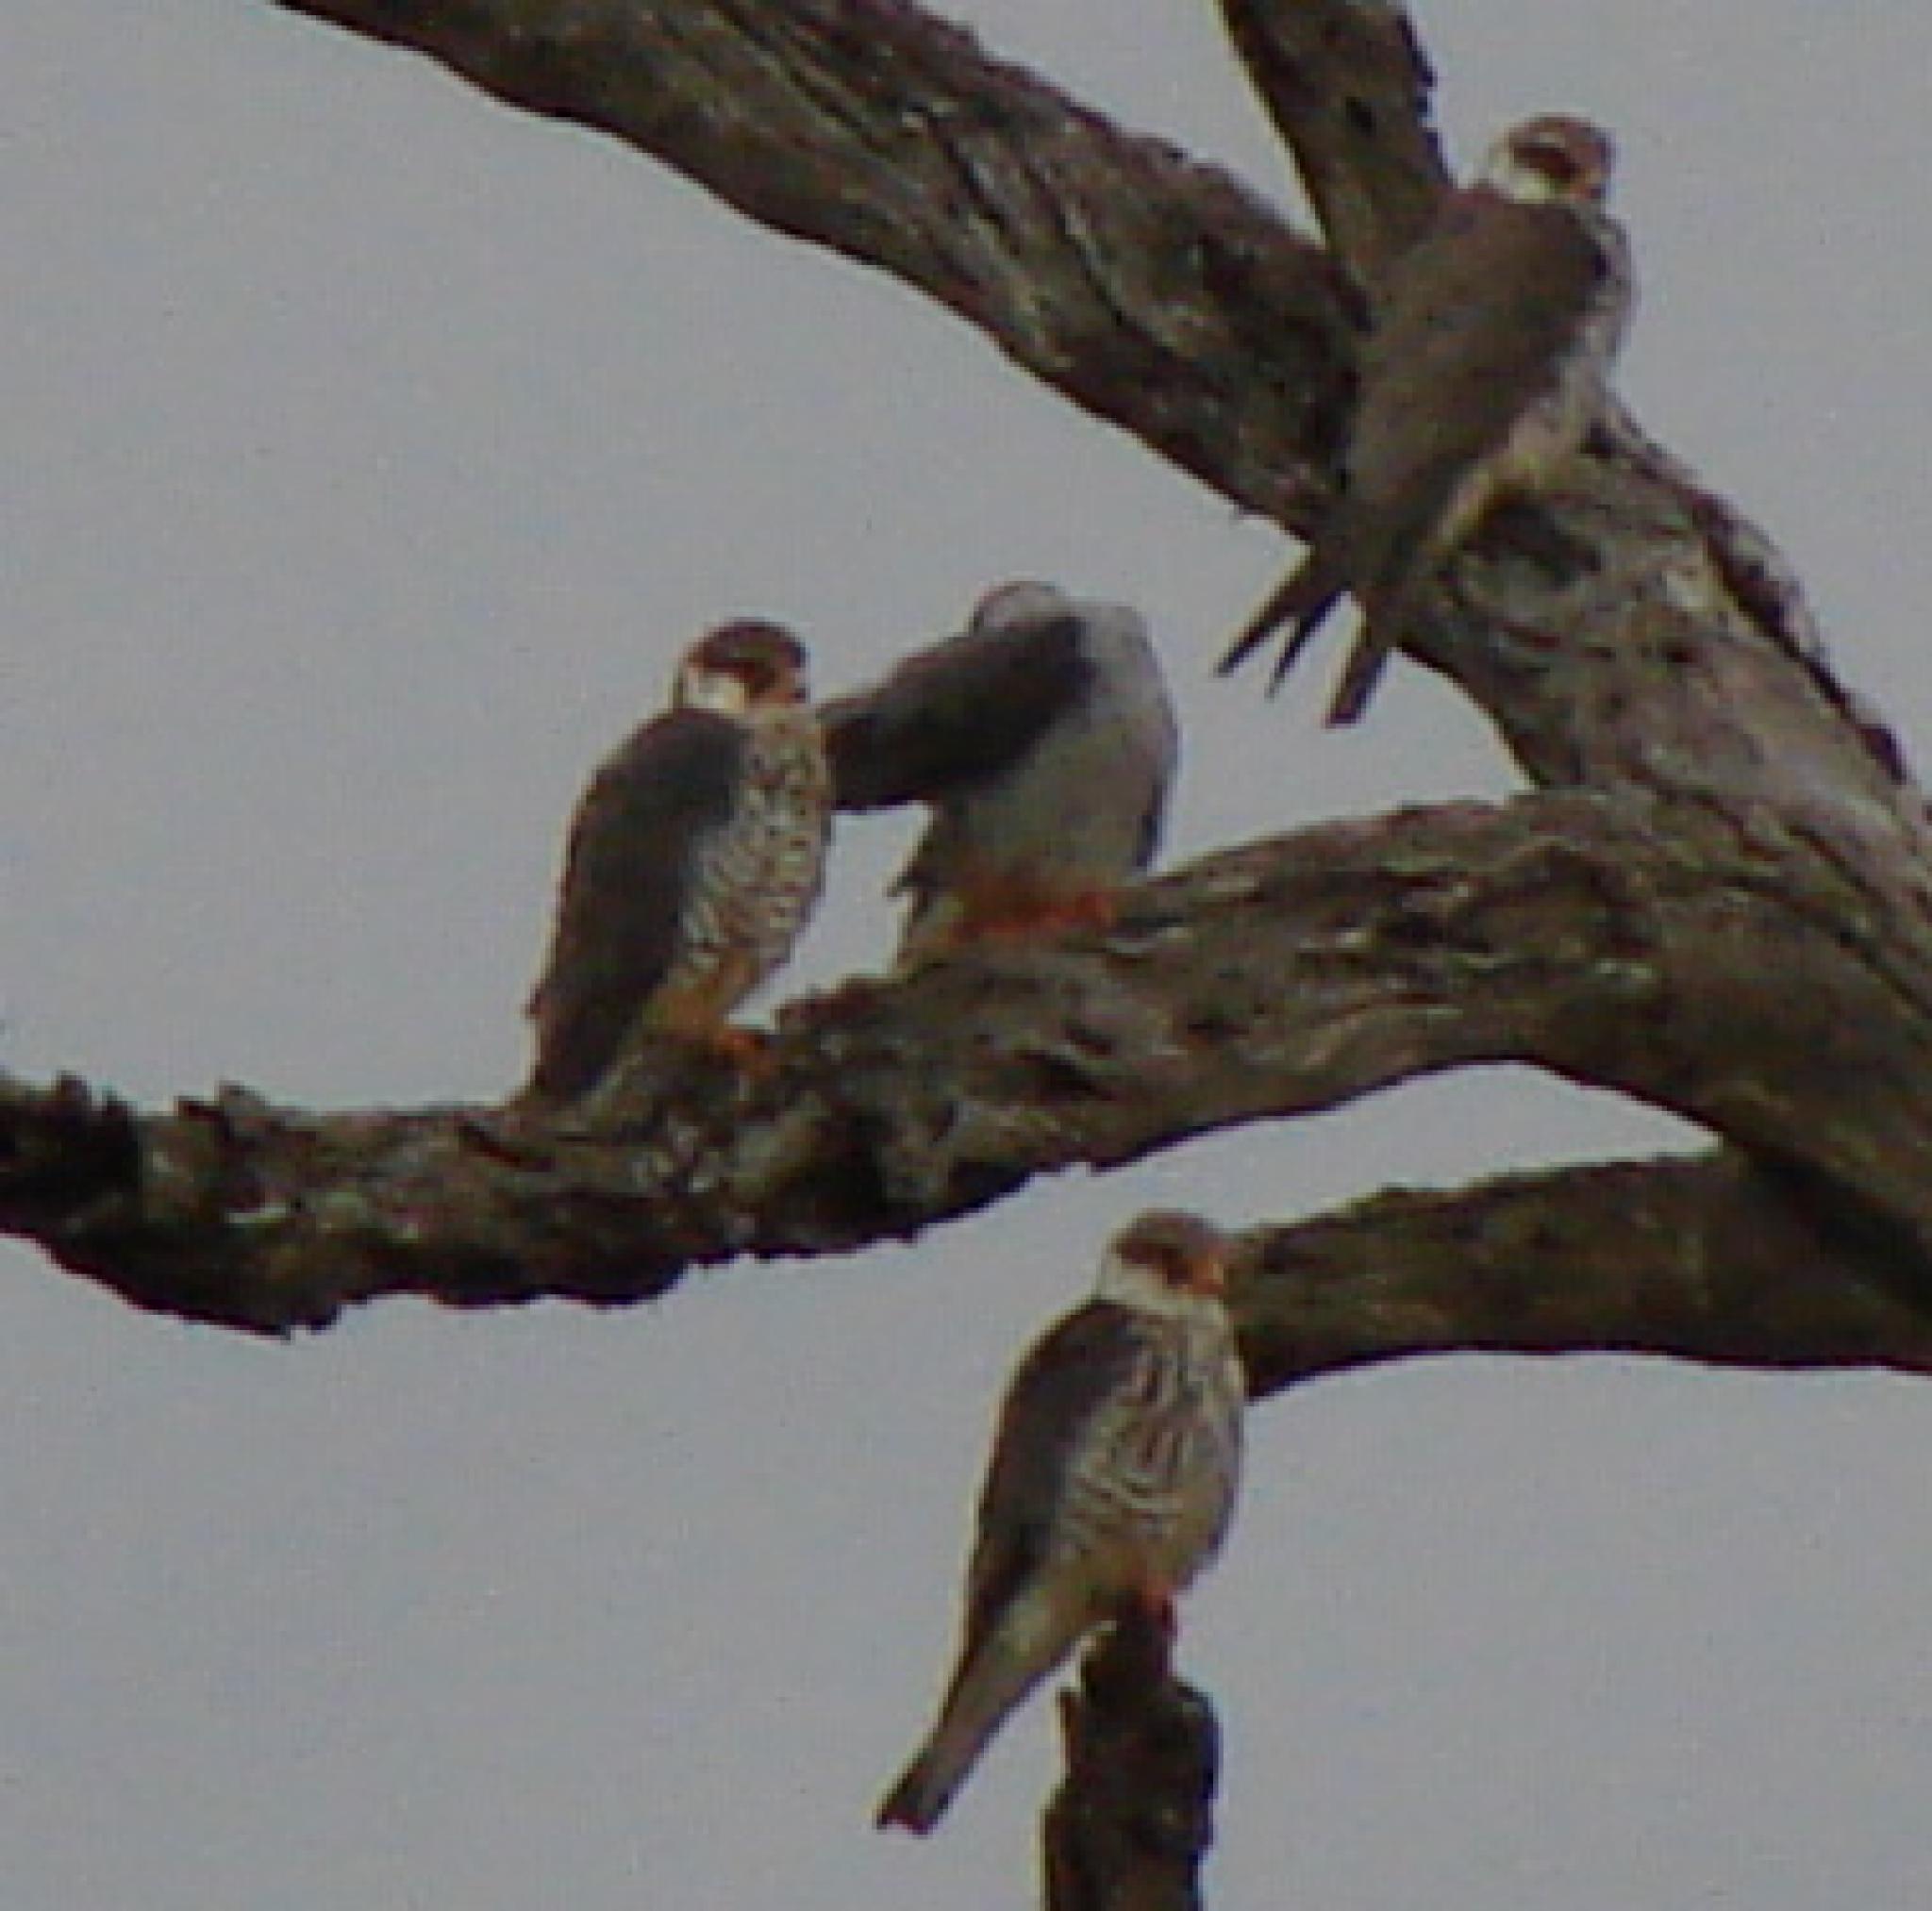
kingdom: Animalia
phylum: Chordata
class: Aves
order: Falconiformes
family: Falconidae
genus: Falco
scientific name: Falco amurensis
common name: Amur falcon
